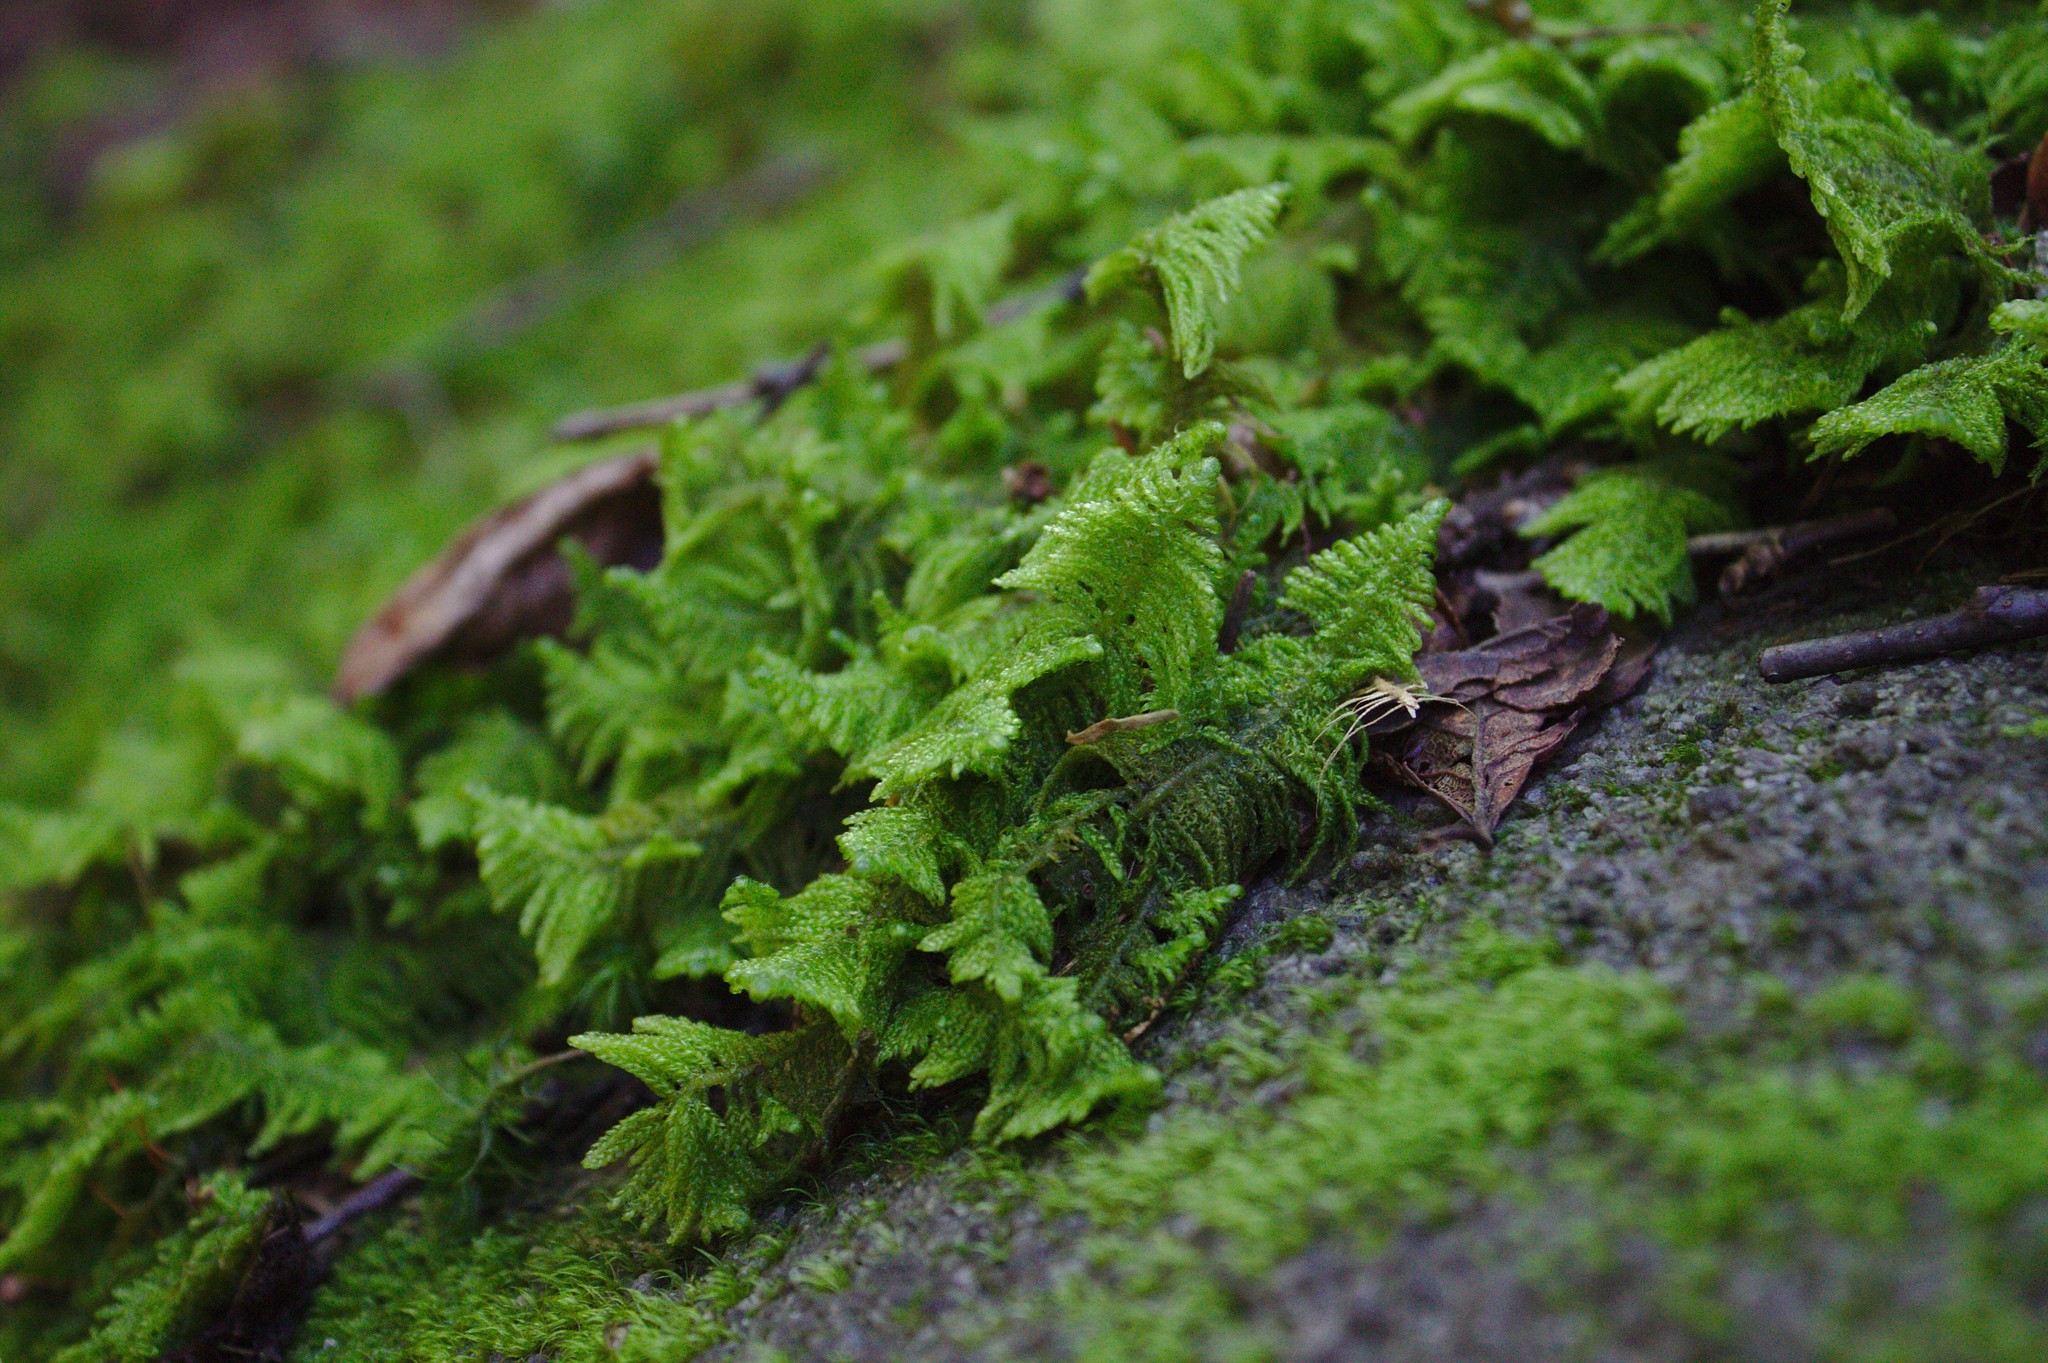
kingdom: Plantae
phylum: Bryophyta
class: Bryopsida
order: Hypnales
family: Pylaisiaceae
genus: Ptilium
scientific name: Ptilium crista-castrensis
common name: Knight's plume moss
